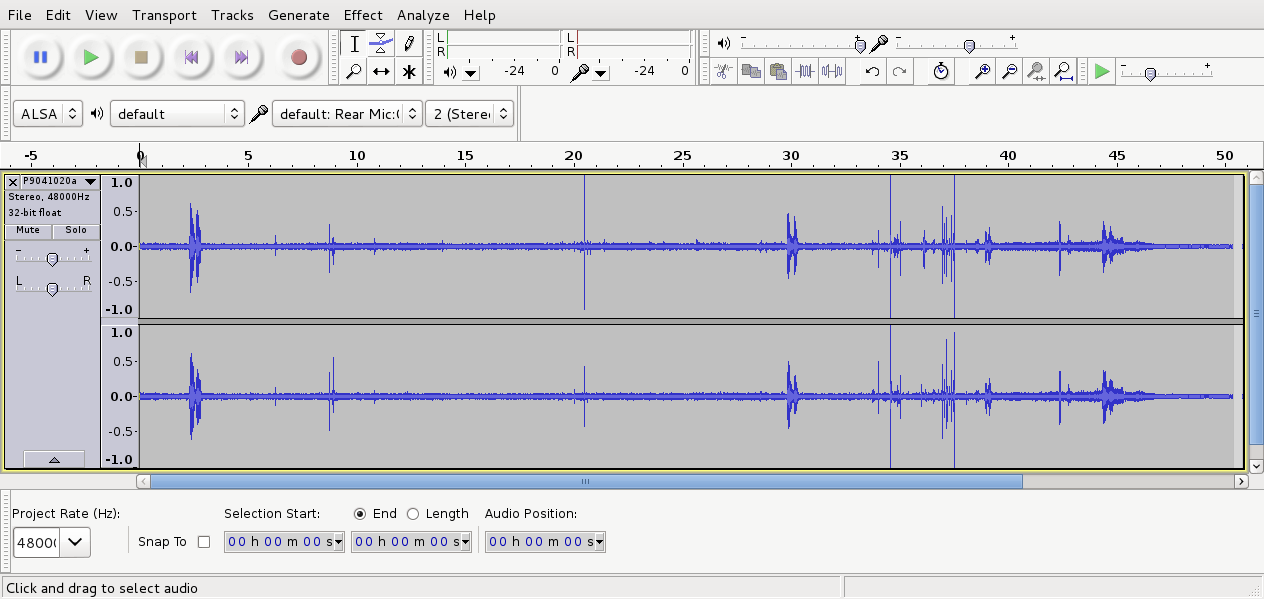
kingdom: Animalia
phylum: Chordata
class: Aves
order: Passeriformes
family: Notiomystidae
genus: Notiomystis
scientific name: Notiomystis cincta
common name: Stitchbird
